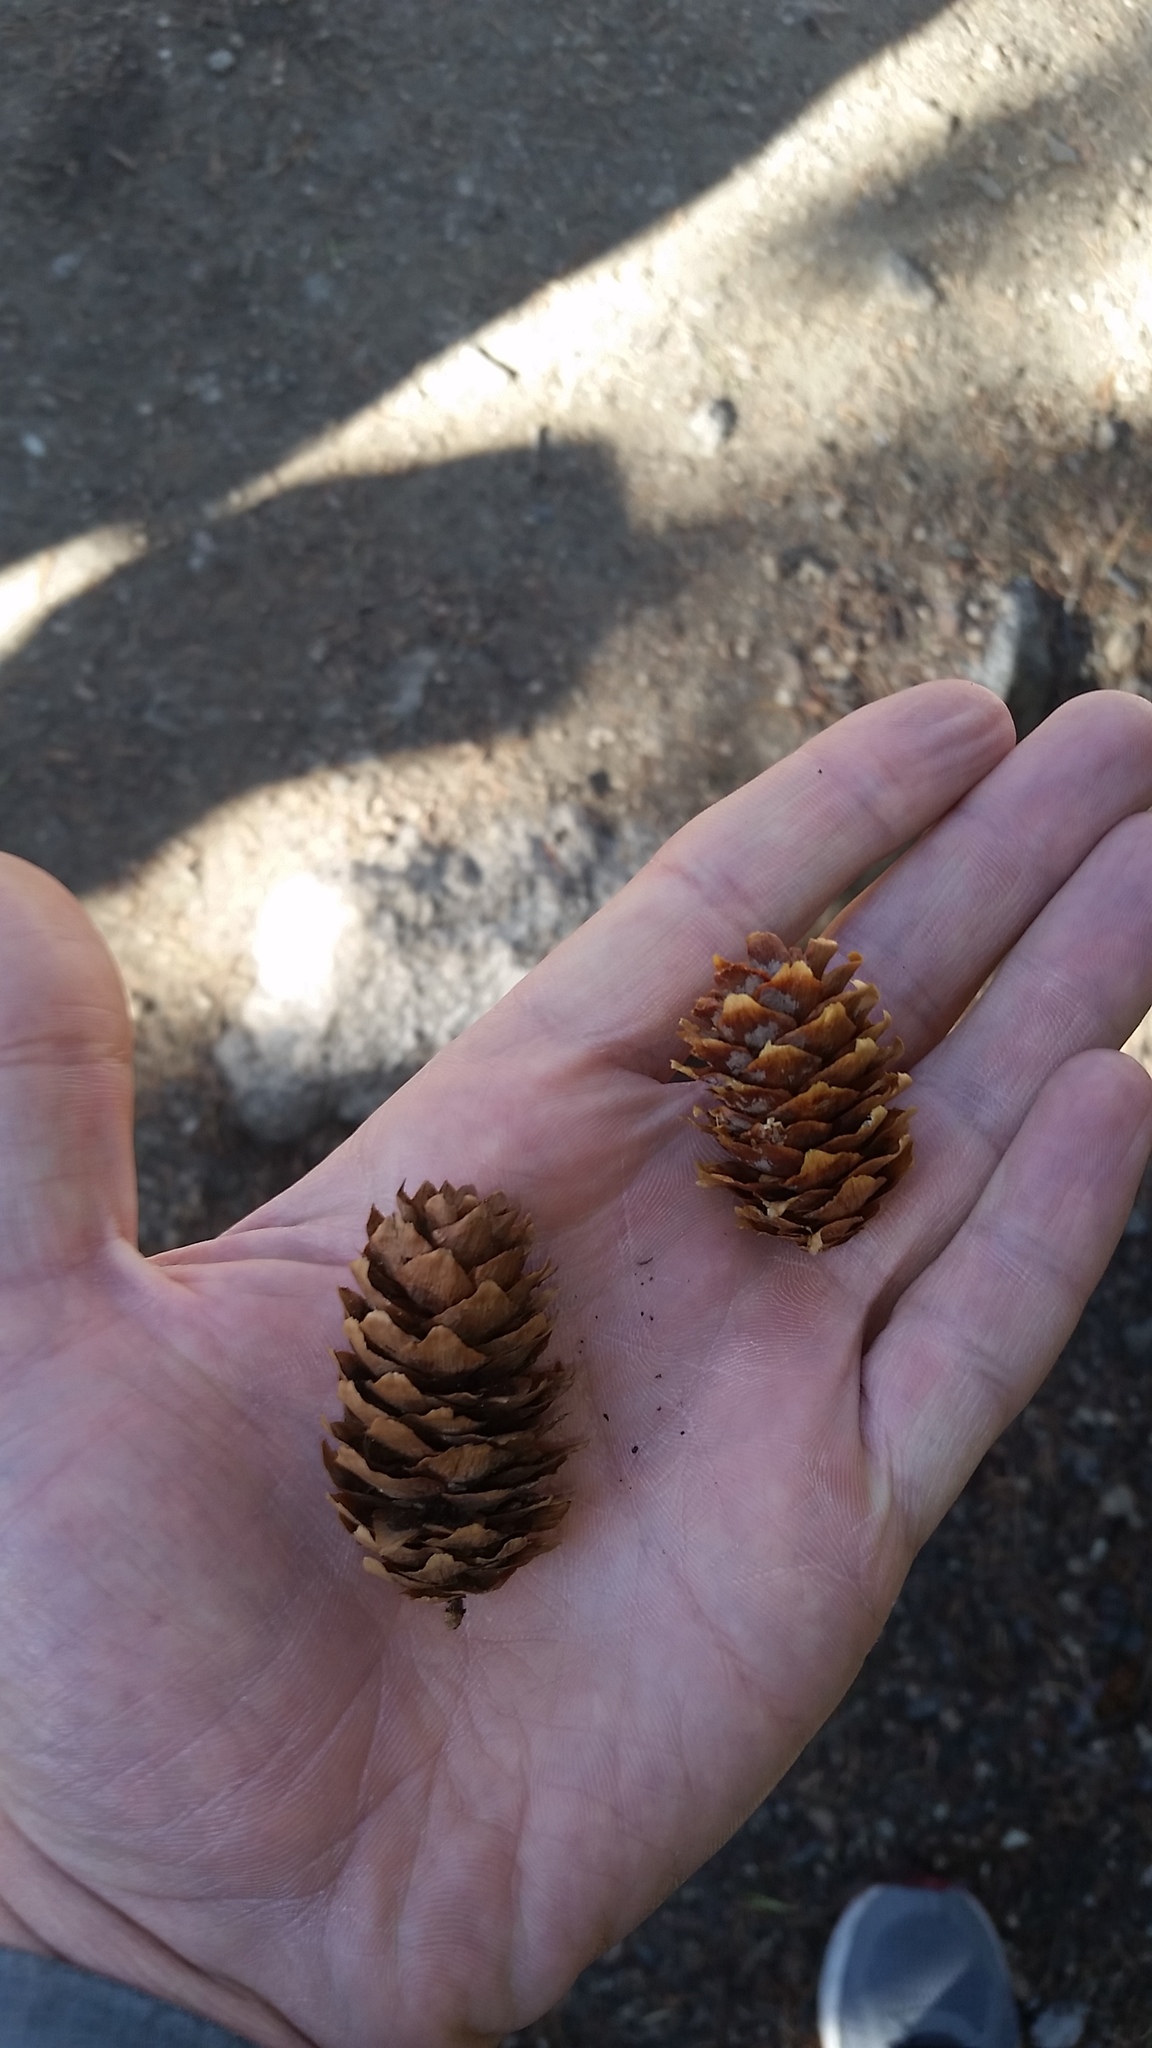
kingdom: Plantae
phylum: Tracheophyta
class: Pinopsida
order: Pinales
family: Pinaceae
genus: Picea
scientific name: Picea engelmannii
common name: Engelmann spruce
